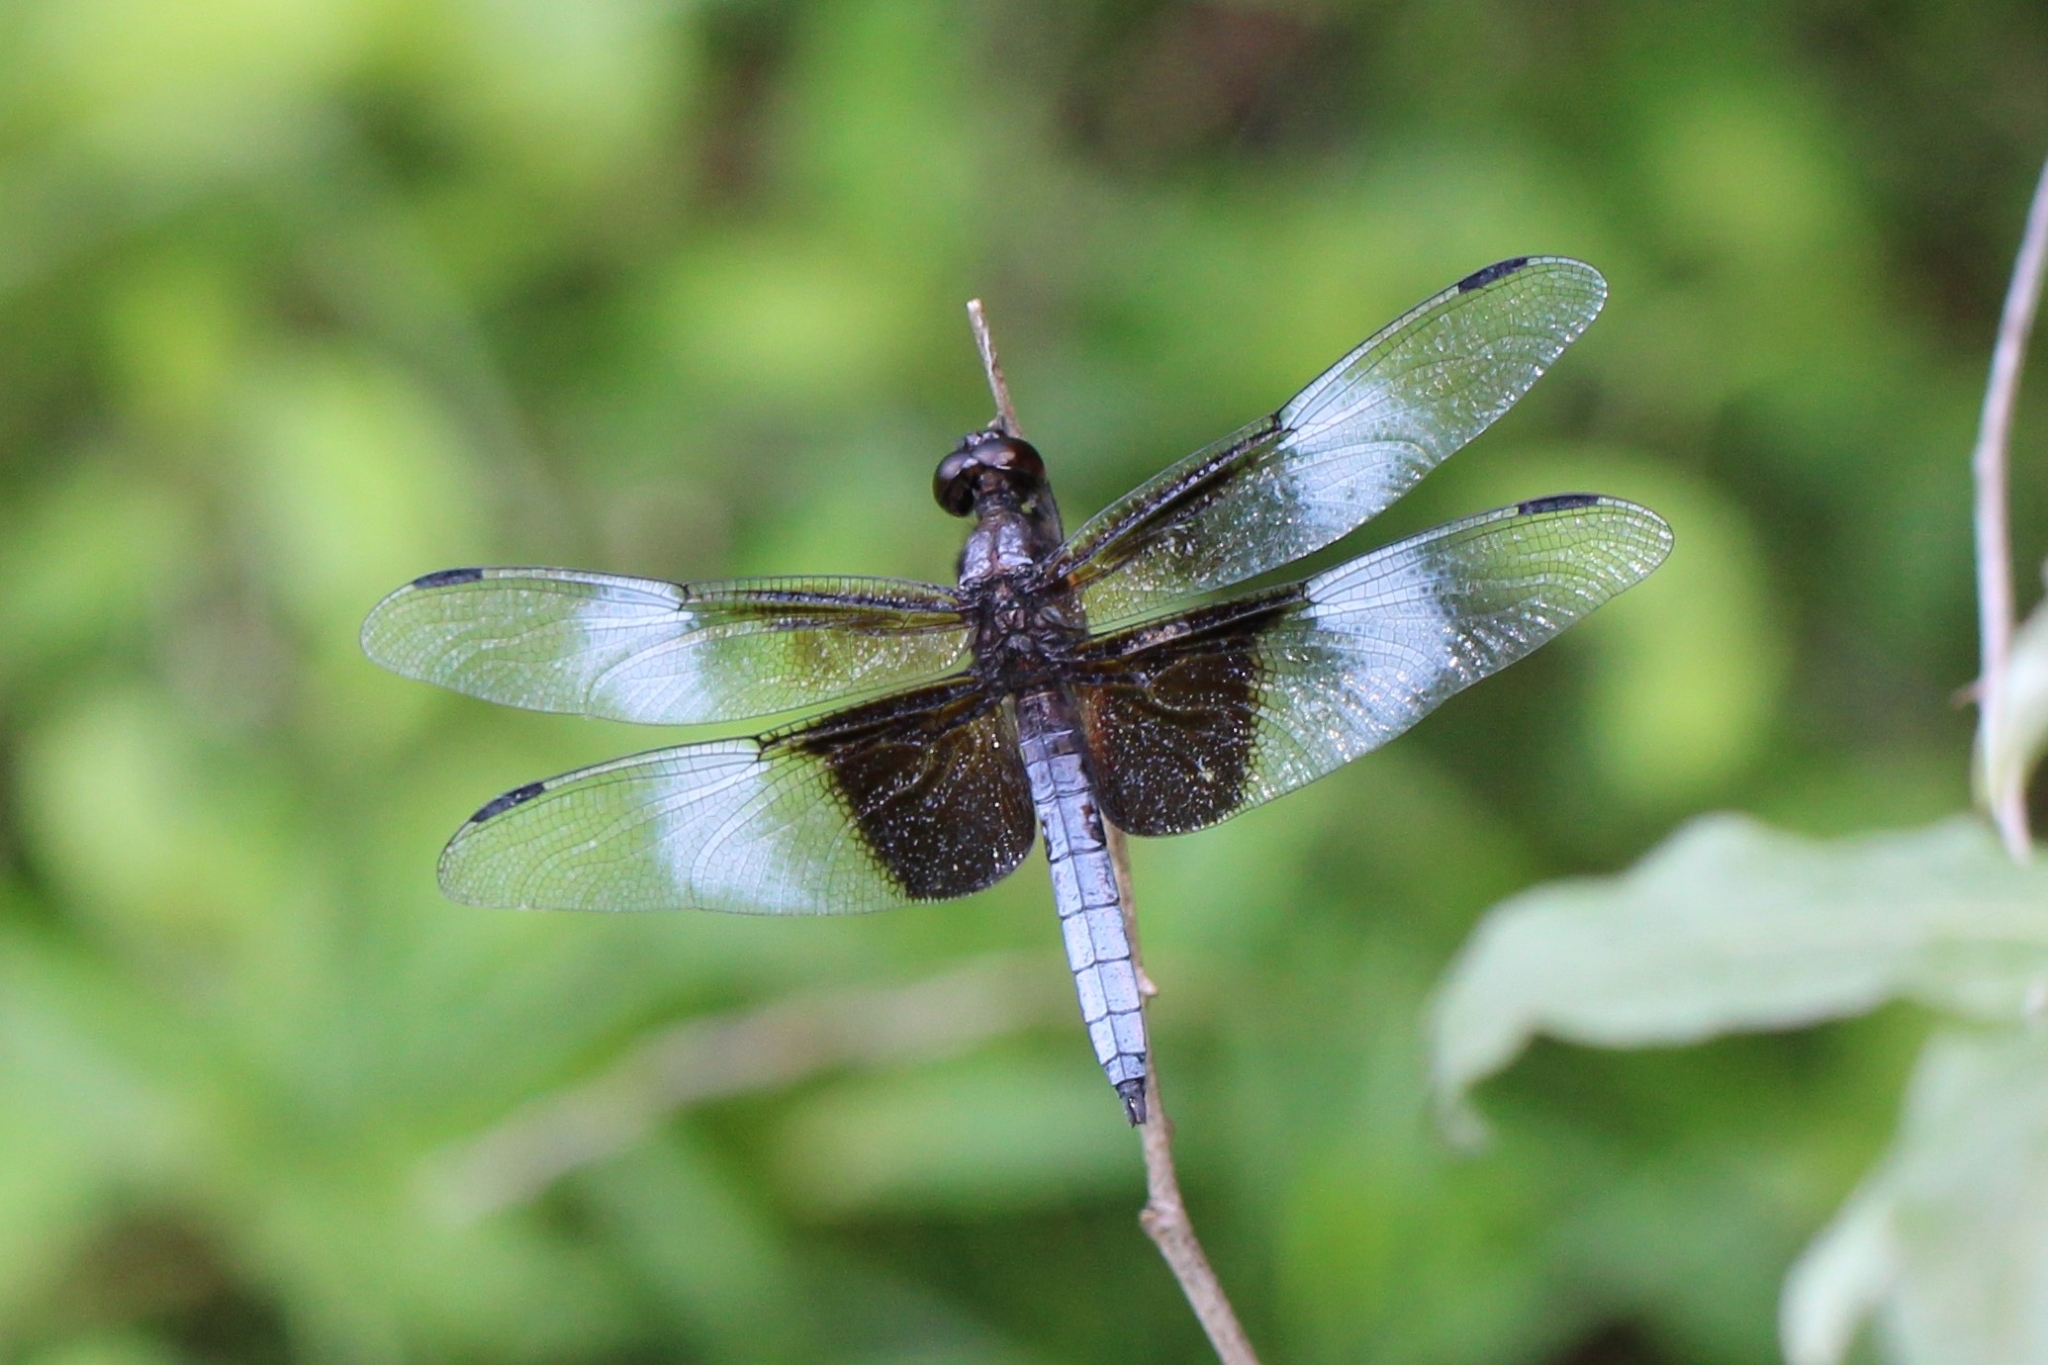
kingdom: Animalia
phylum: Arthropoda
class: Insecta
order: Odonata
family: Libellulidae
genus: Libellula
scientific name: Libellula luctuosa
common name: Widow skimmer
